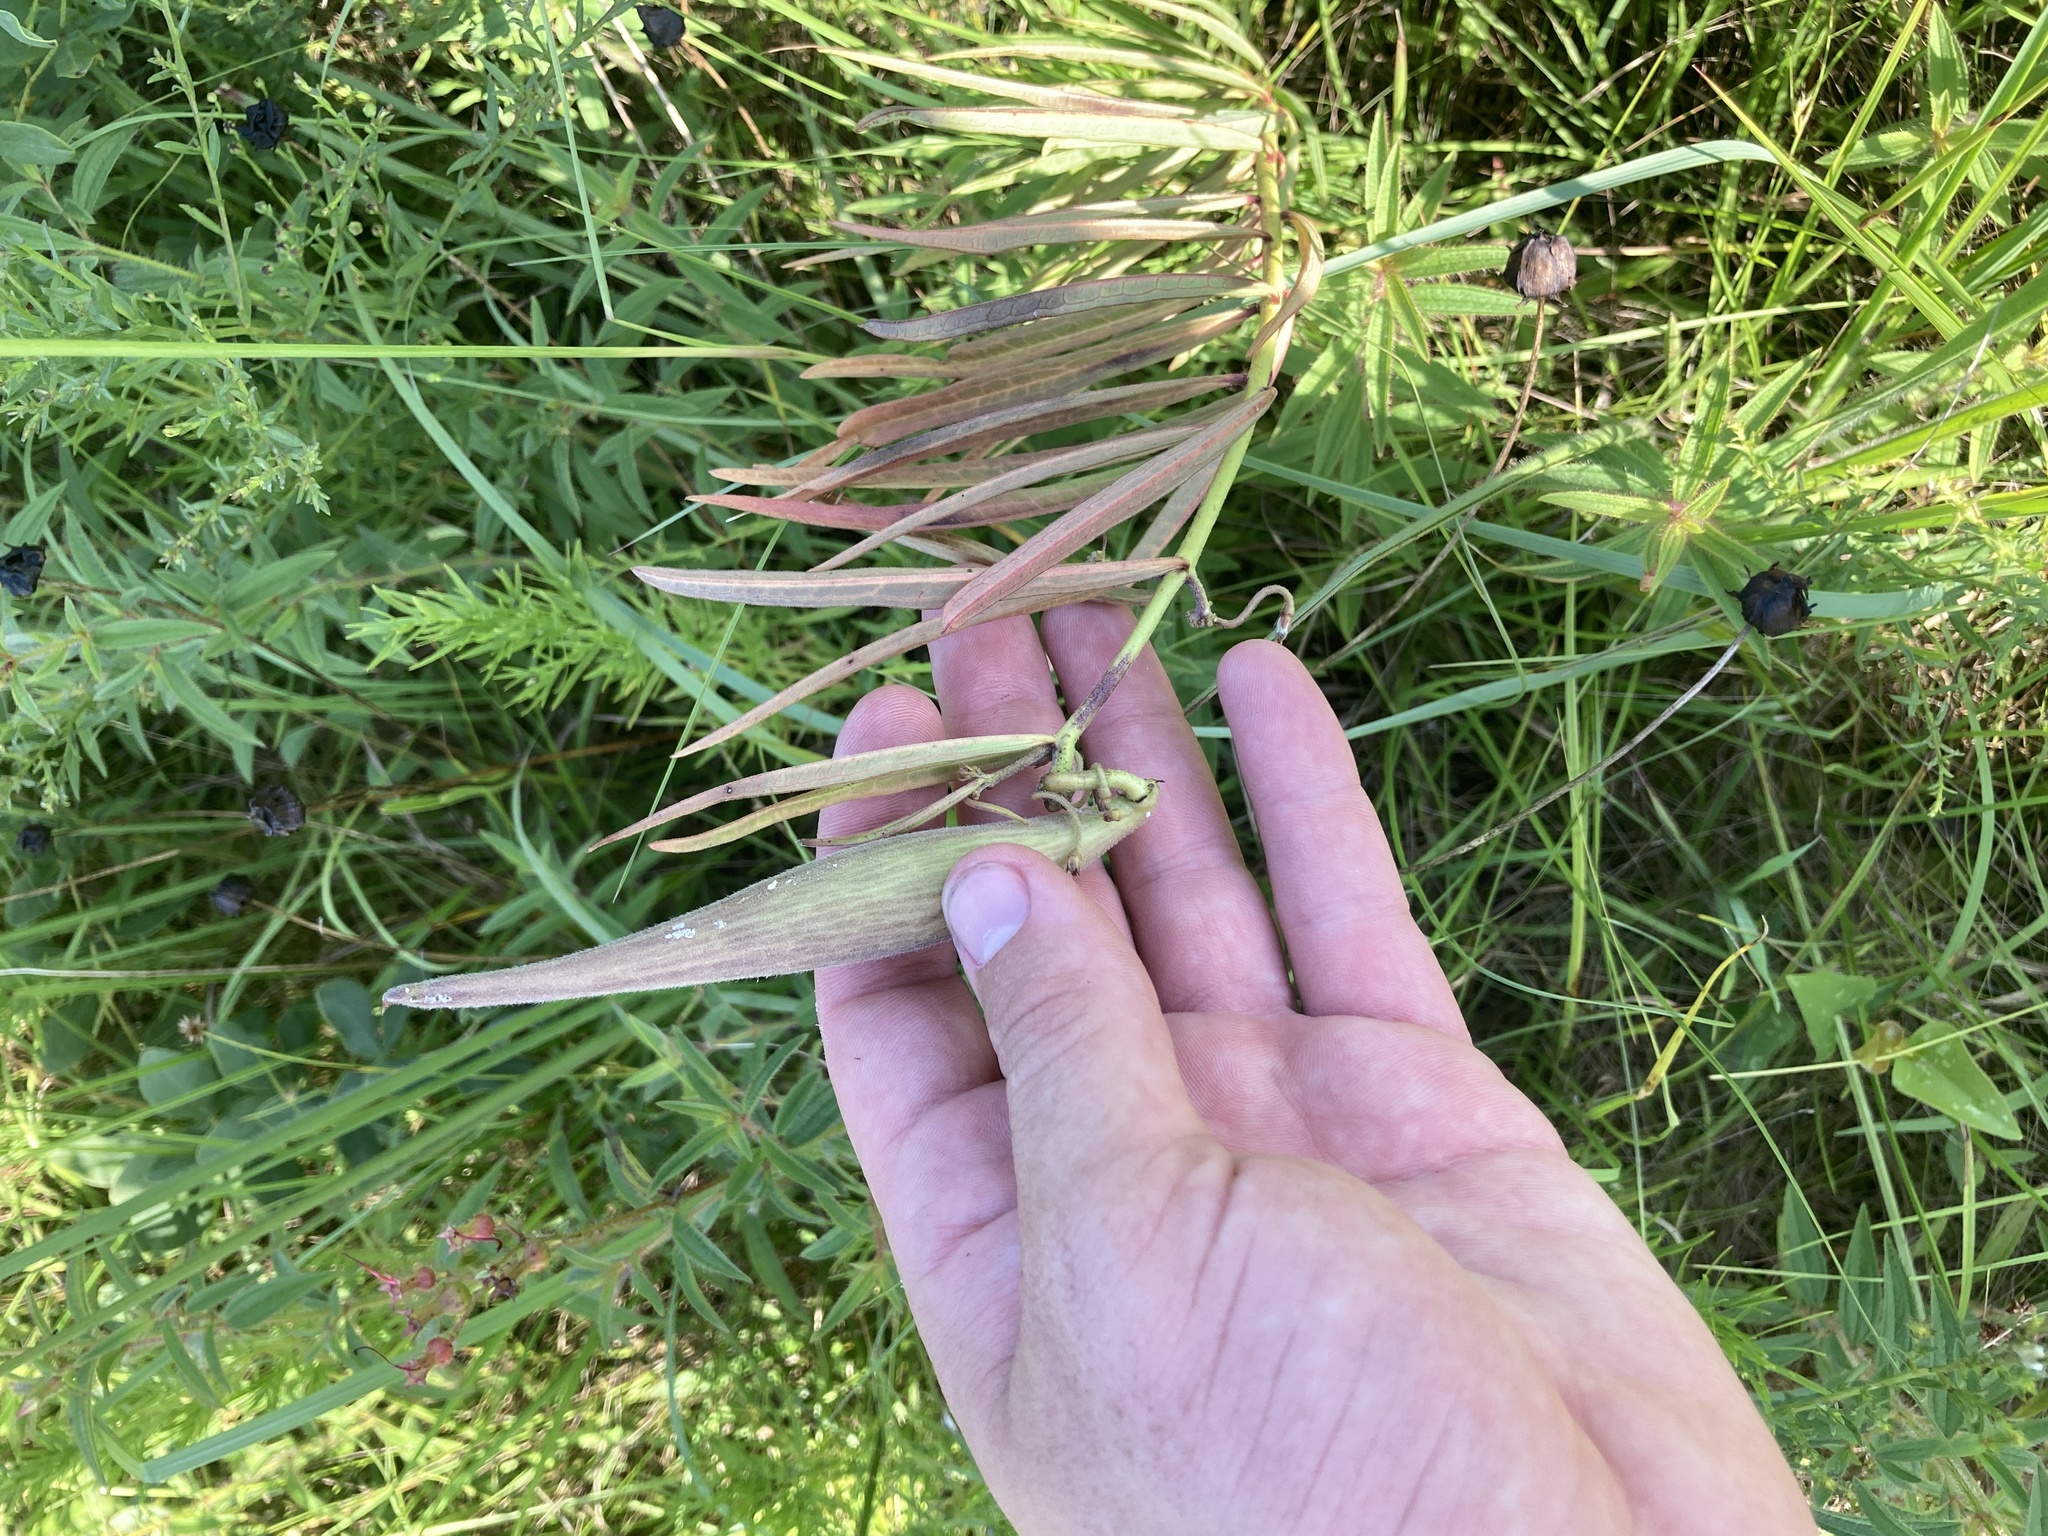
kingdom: Plantae
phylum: Tracheophyta
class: Magnoliopsida
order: Gentianales
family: Apocynaceae
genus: Asclepias
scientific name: Asclepias hirtella
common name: Prairie milkweed
